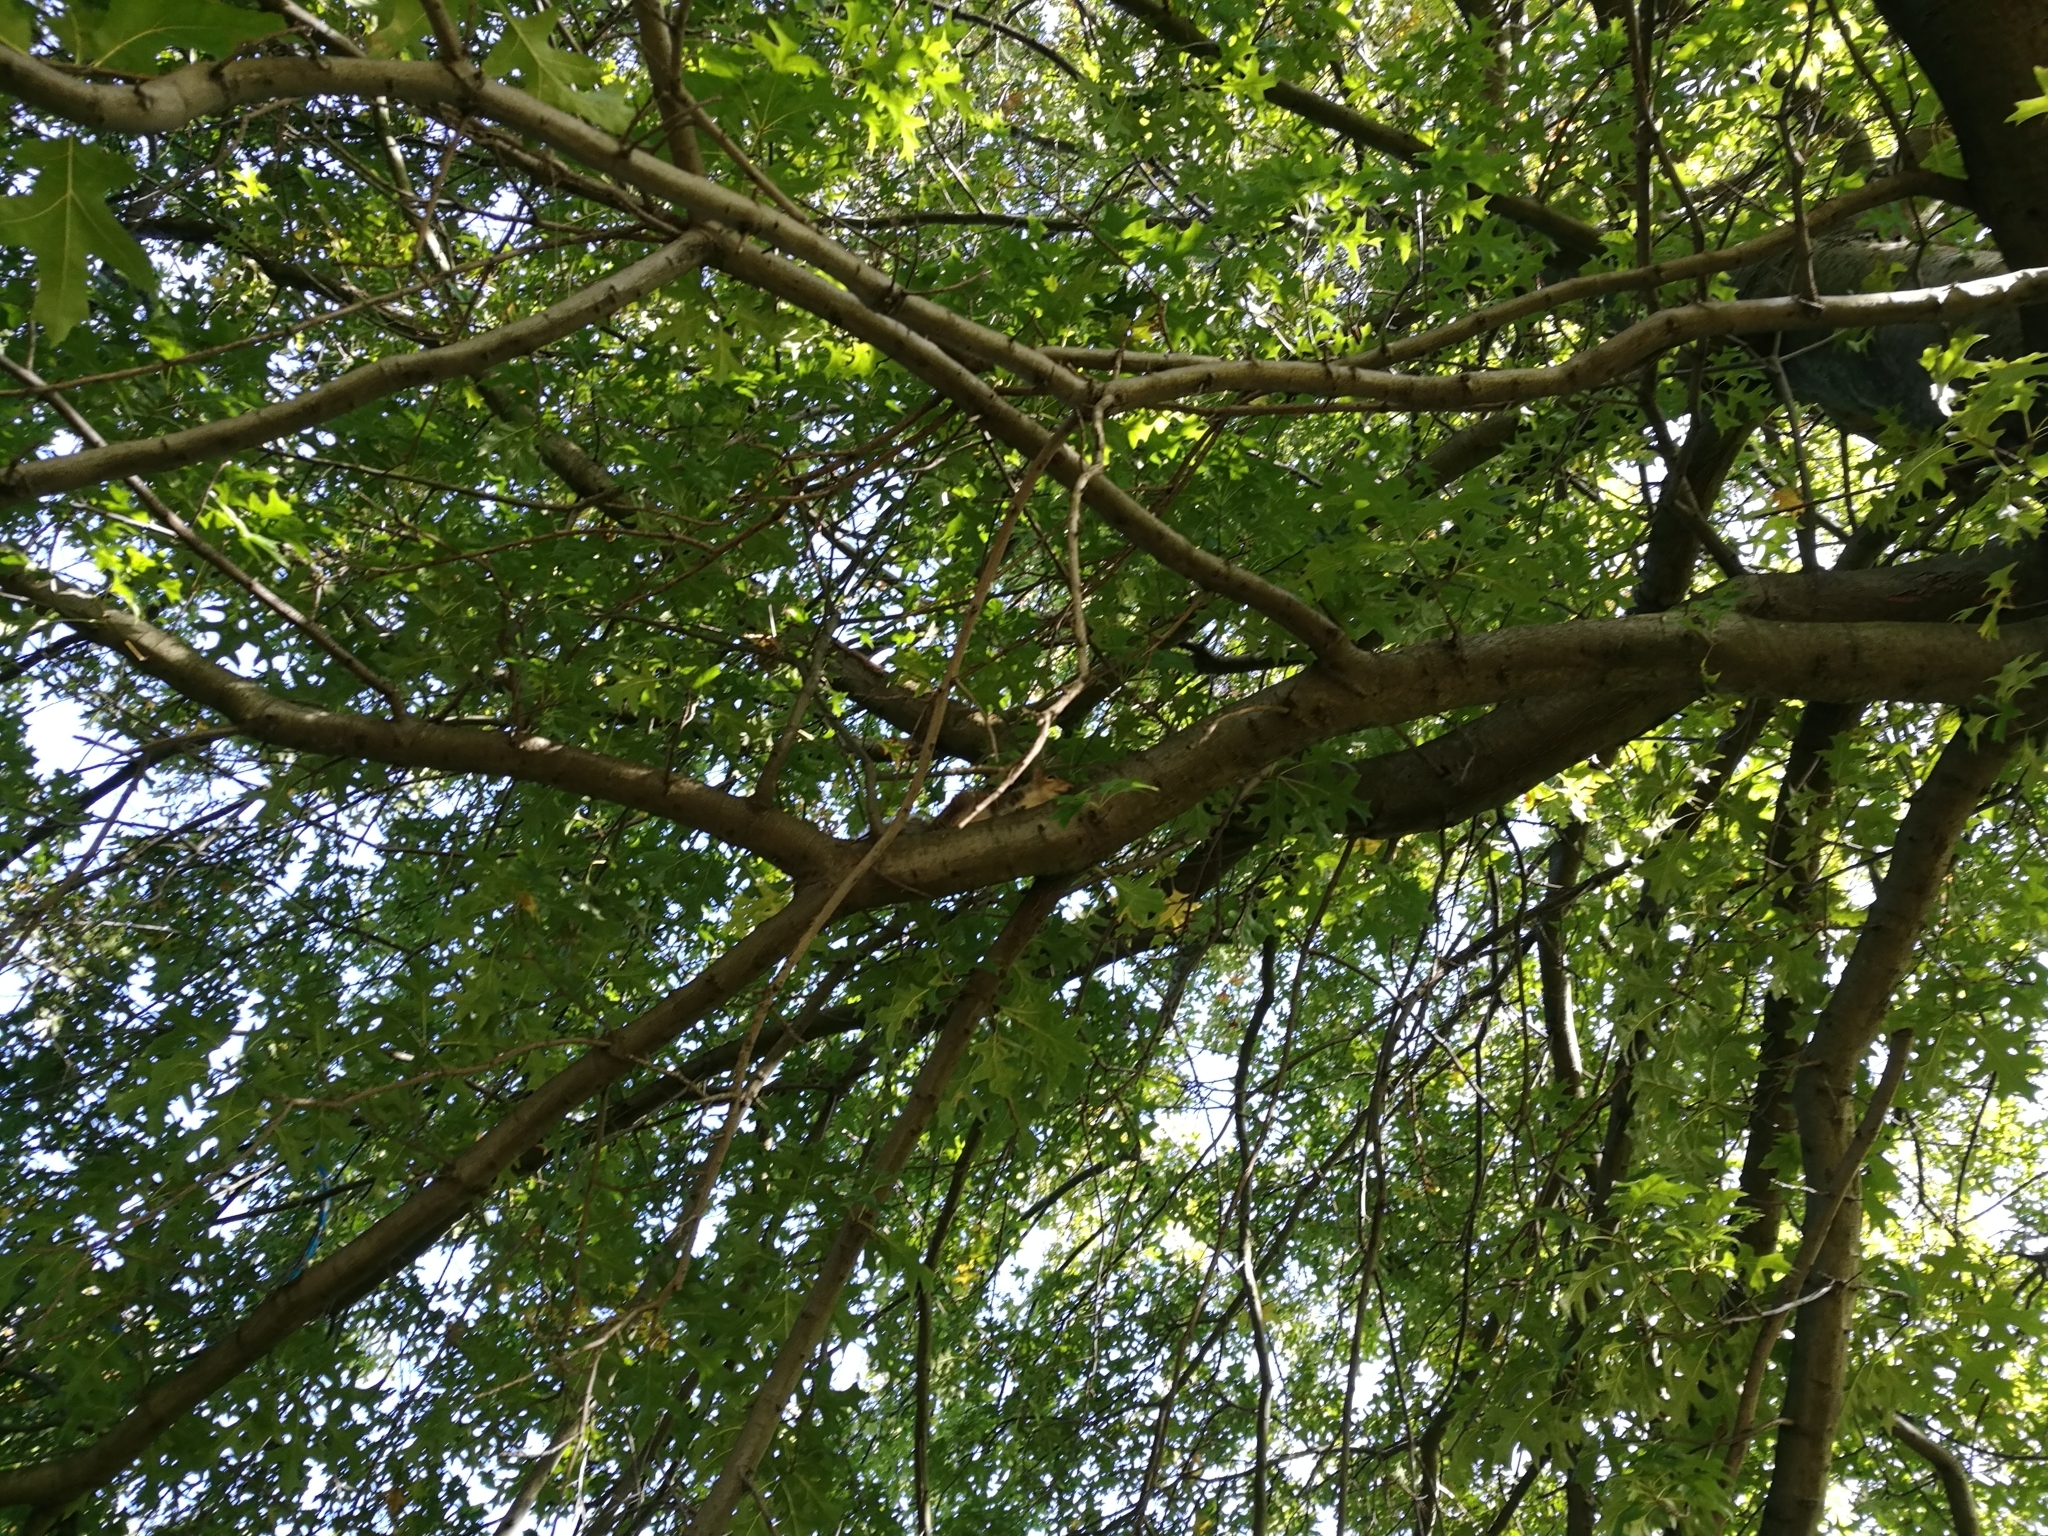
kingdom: Animalia
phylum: Chordata
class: Mammalia
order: Rodentia
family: Sciuridae
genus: Sciurus
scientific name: Sciurus carolinensis
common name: Eastern gray squirrel
